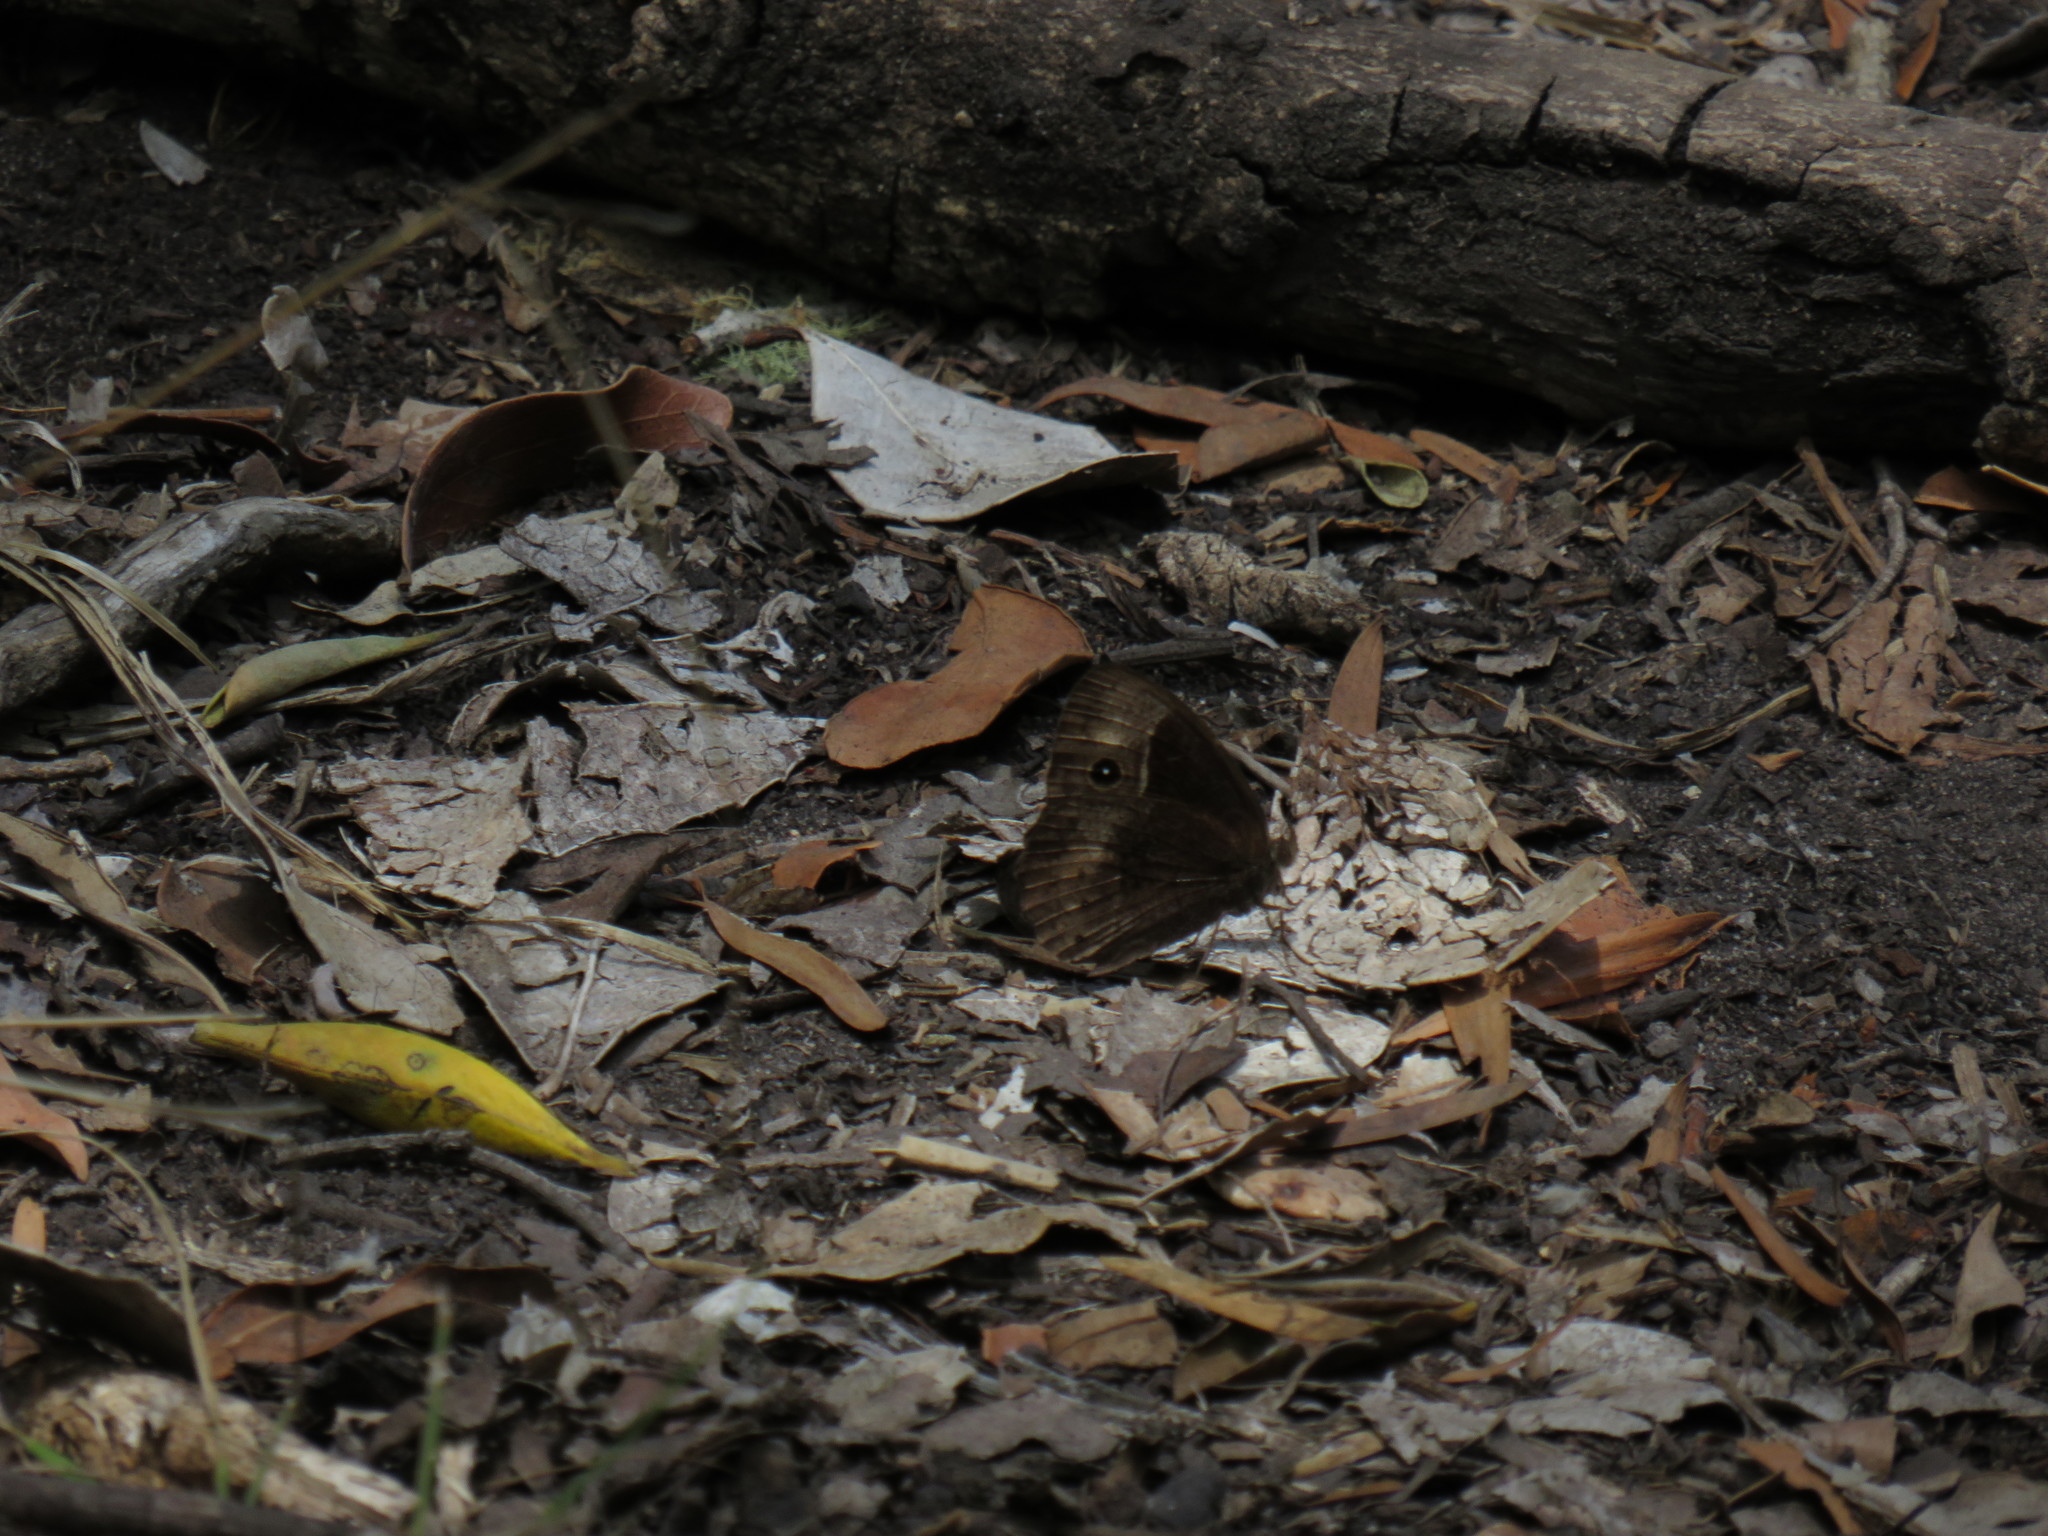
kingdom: Animalia
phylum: Arthropoda
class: Insecta
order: Lepidoptera
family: Nymphalidae
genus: Mycalesis
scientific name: Mycalesis rhacotis
